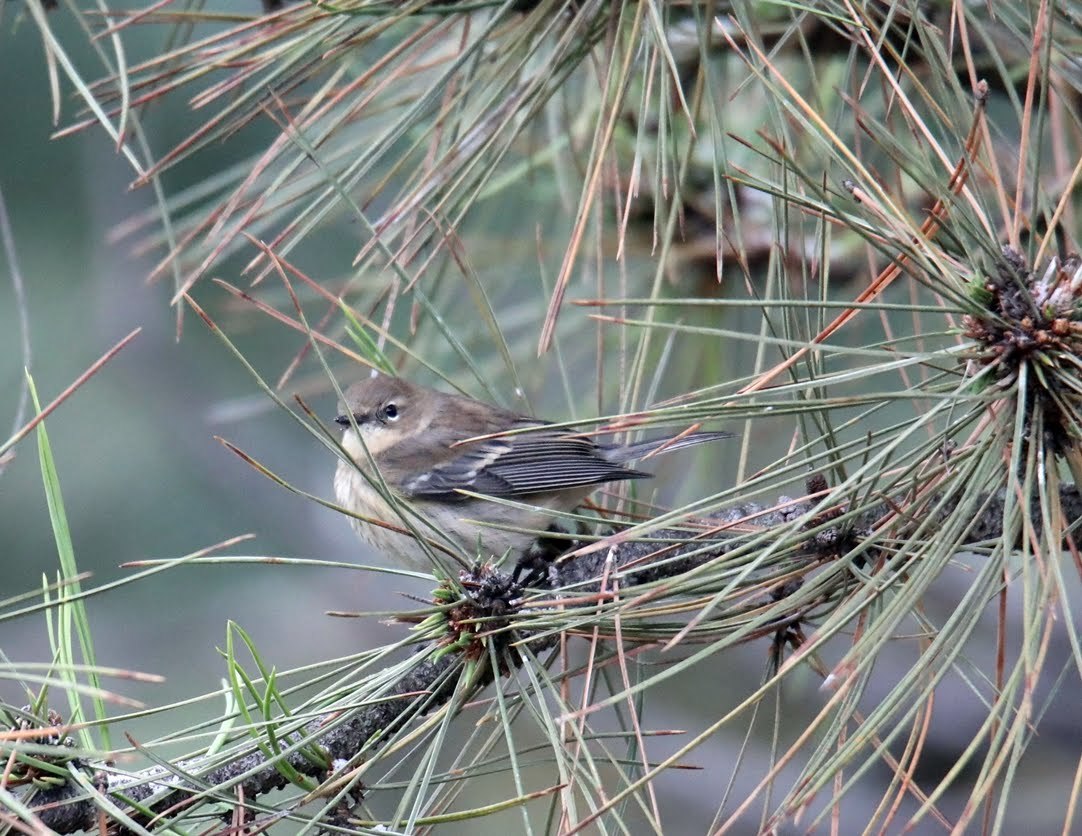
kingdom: Animalia
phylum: Chordata
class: Aves
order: Passeriformes
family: Parulidae
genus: Setophaga
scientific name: Setophaga coronata
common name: Myrtle warbler
